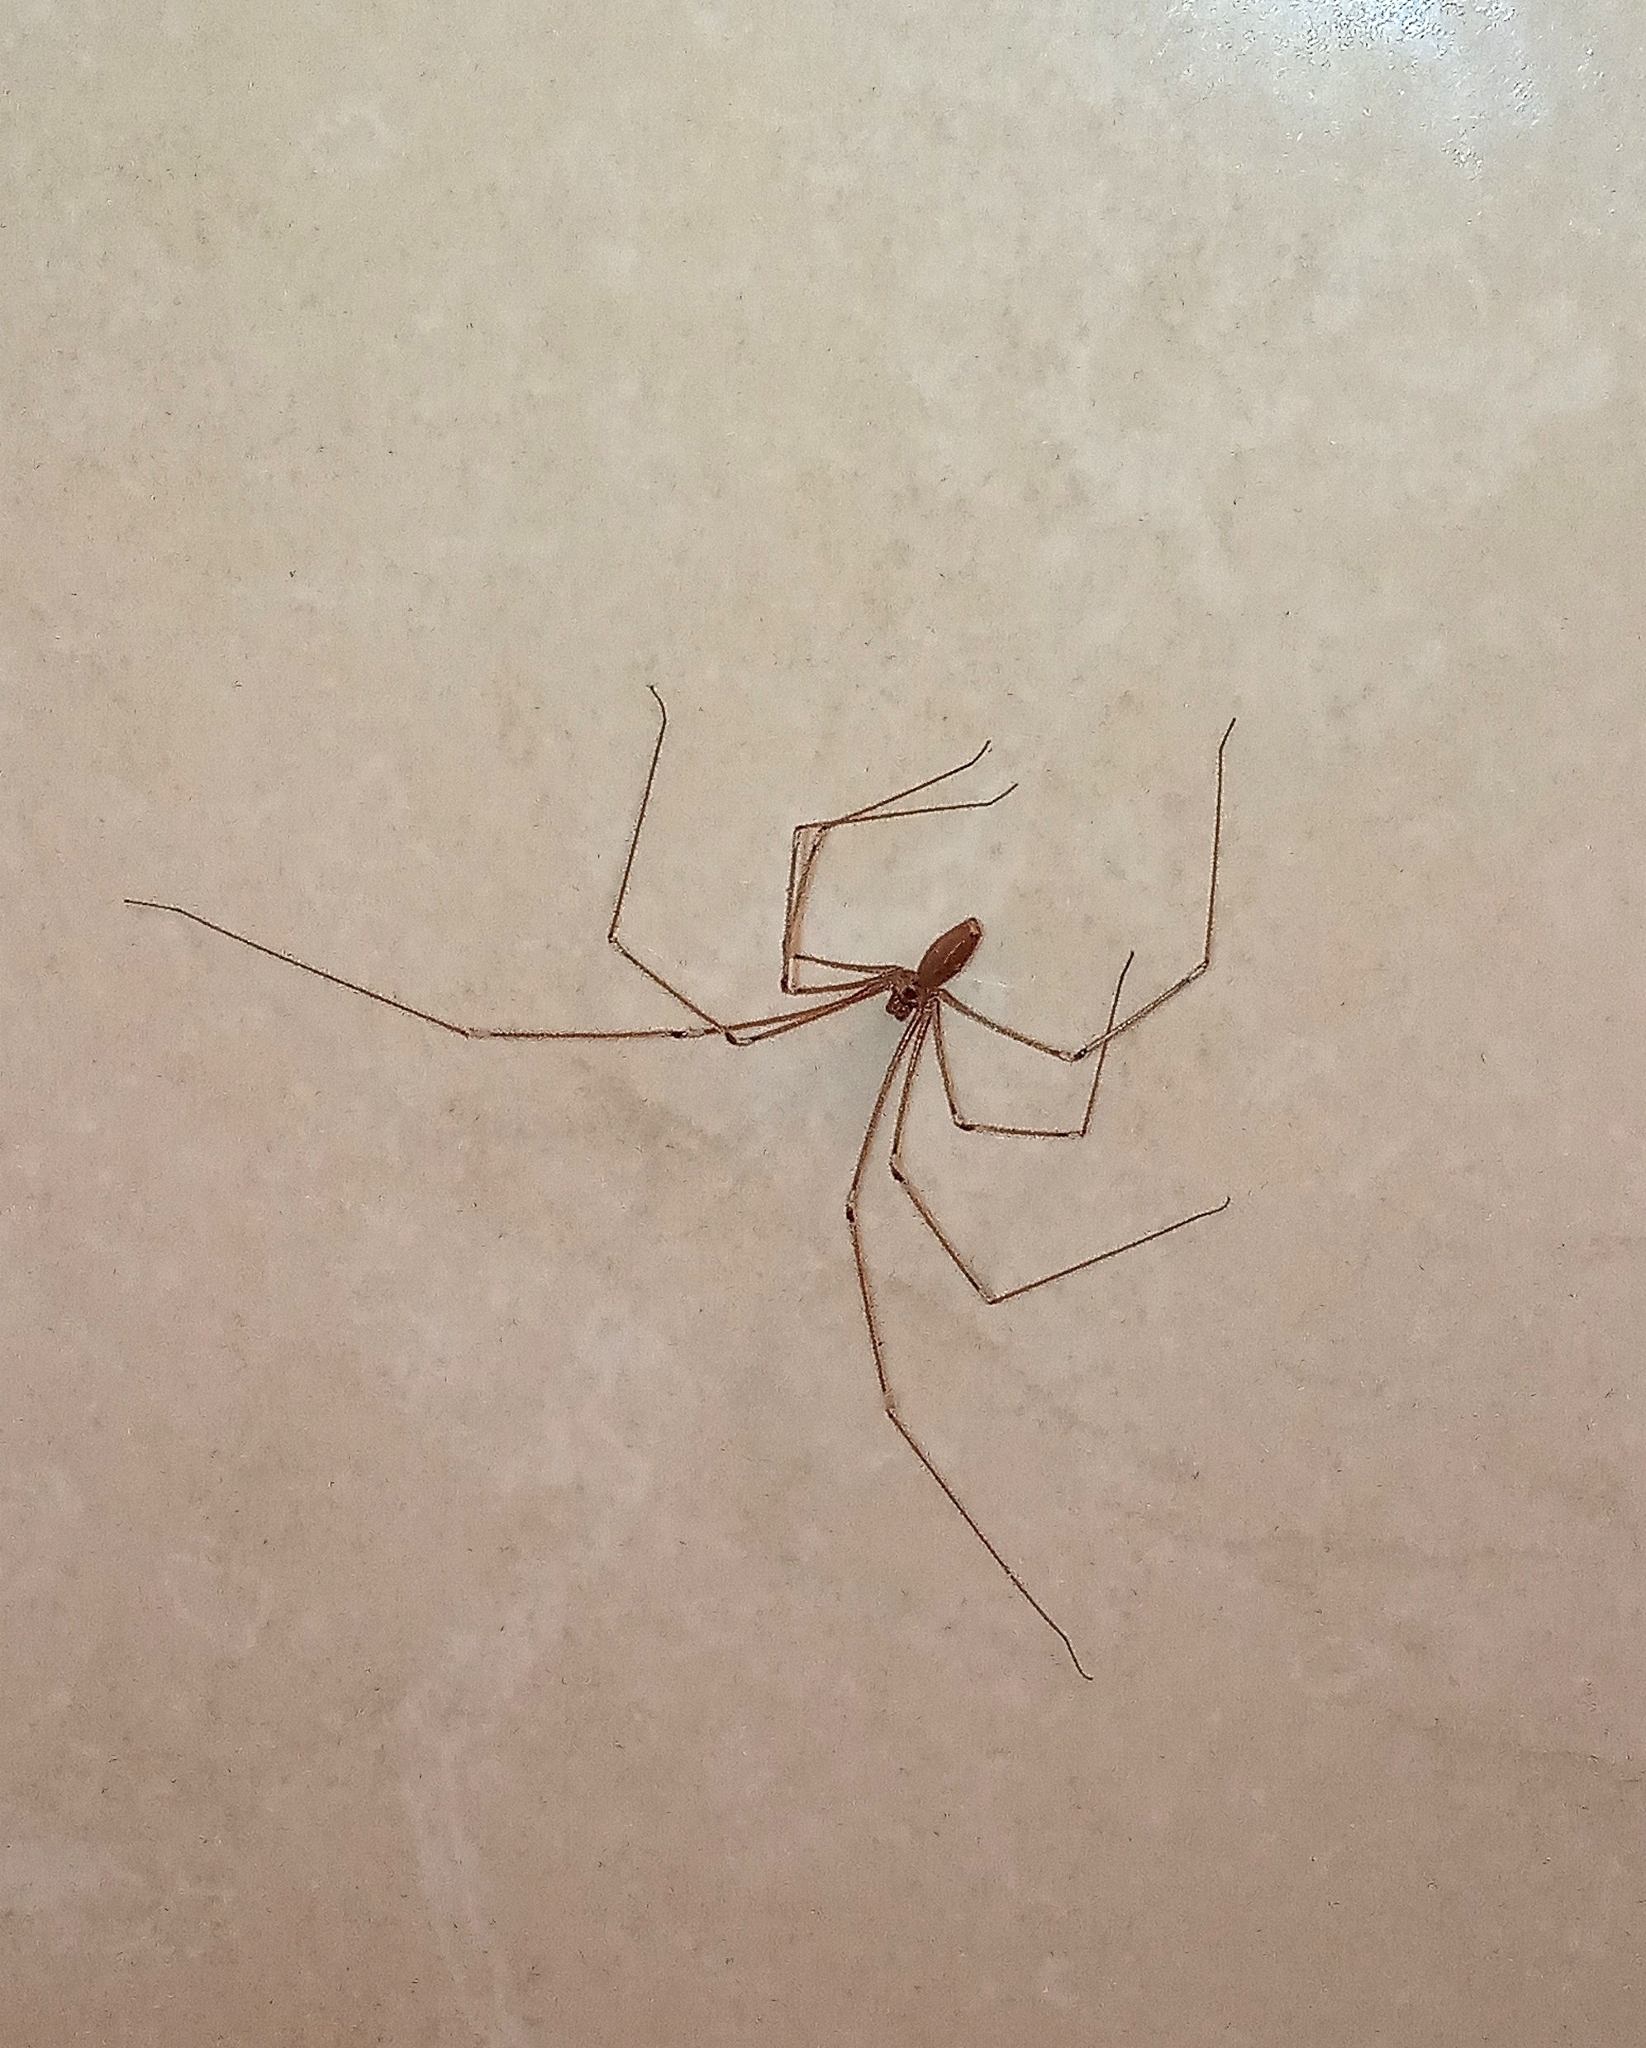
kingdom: Animalia
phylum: Arthropoda
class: Arachnida
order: Araneae
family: Pholcidae
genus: Pholcus
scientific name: Pholcus phalangioides
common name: Longbodied cellar spider
